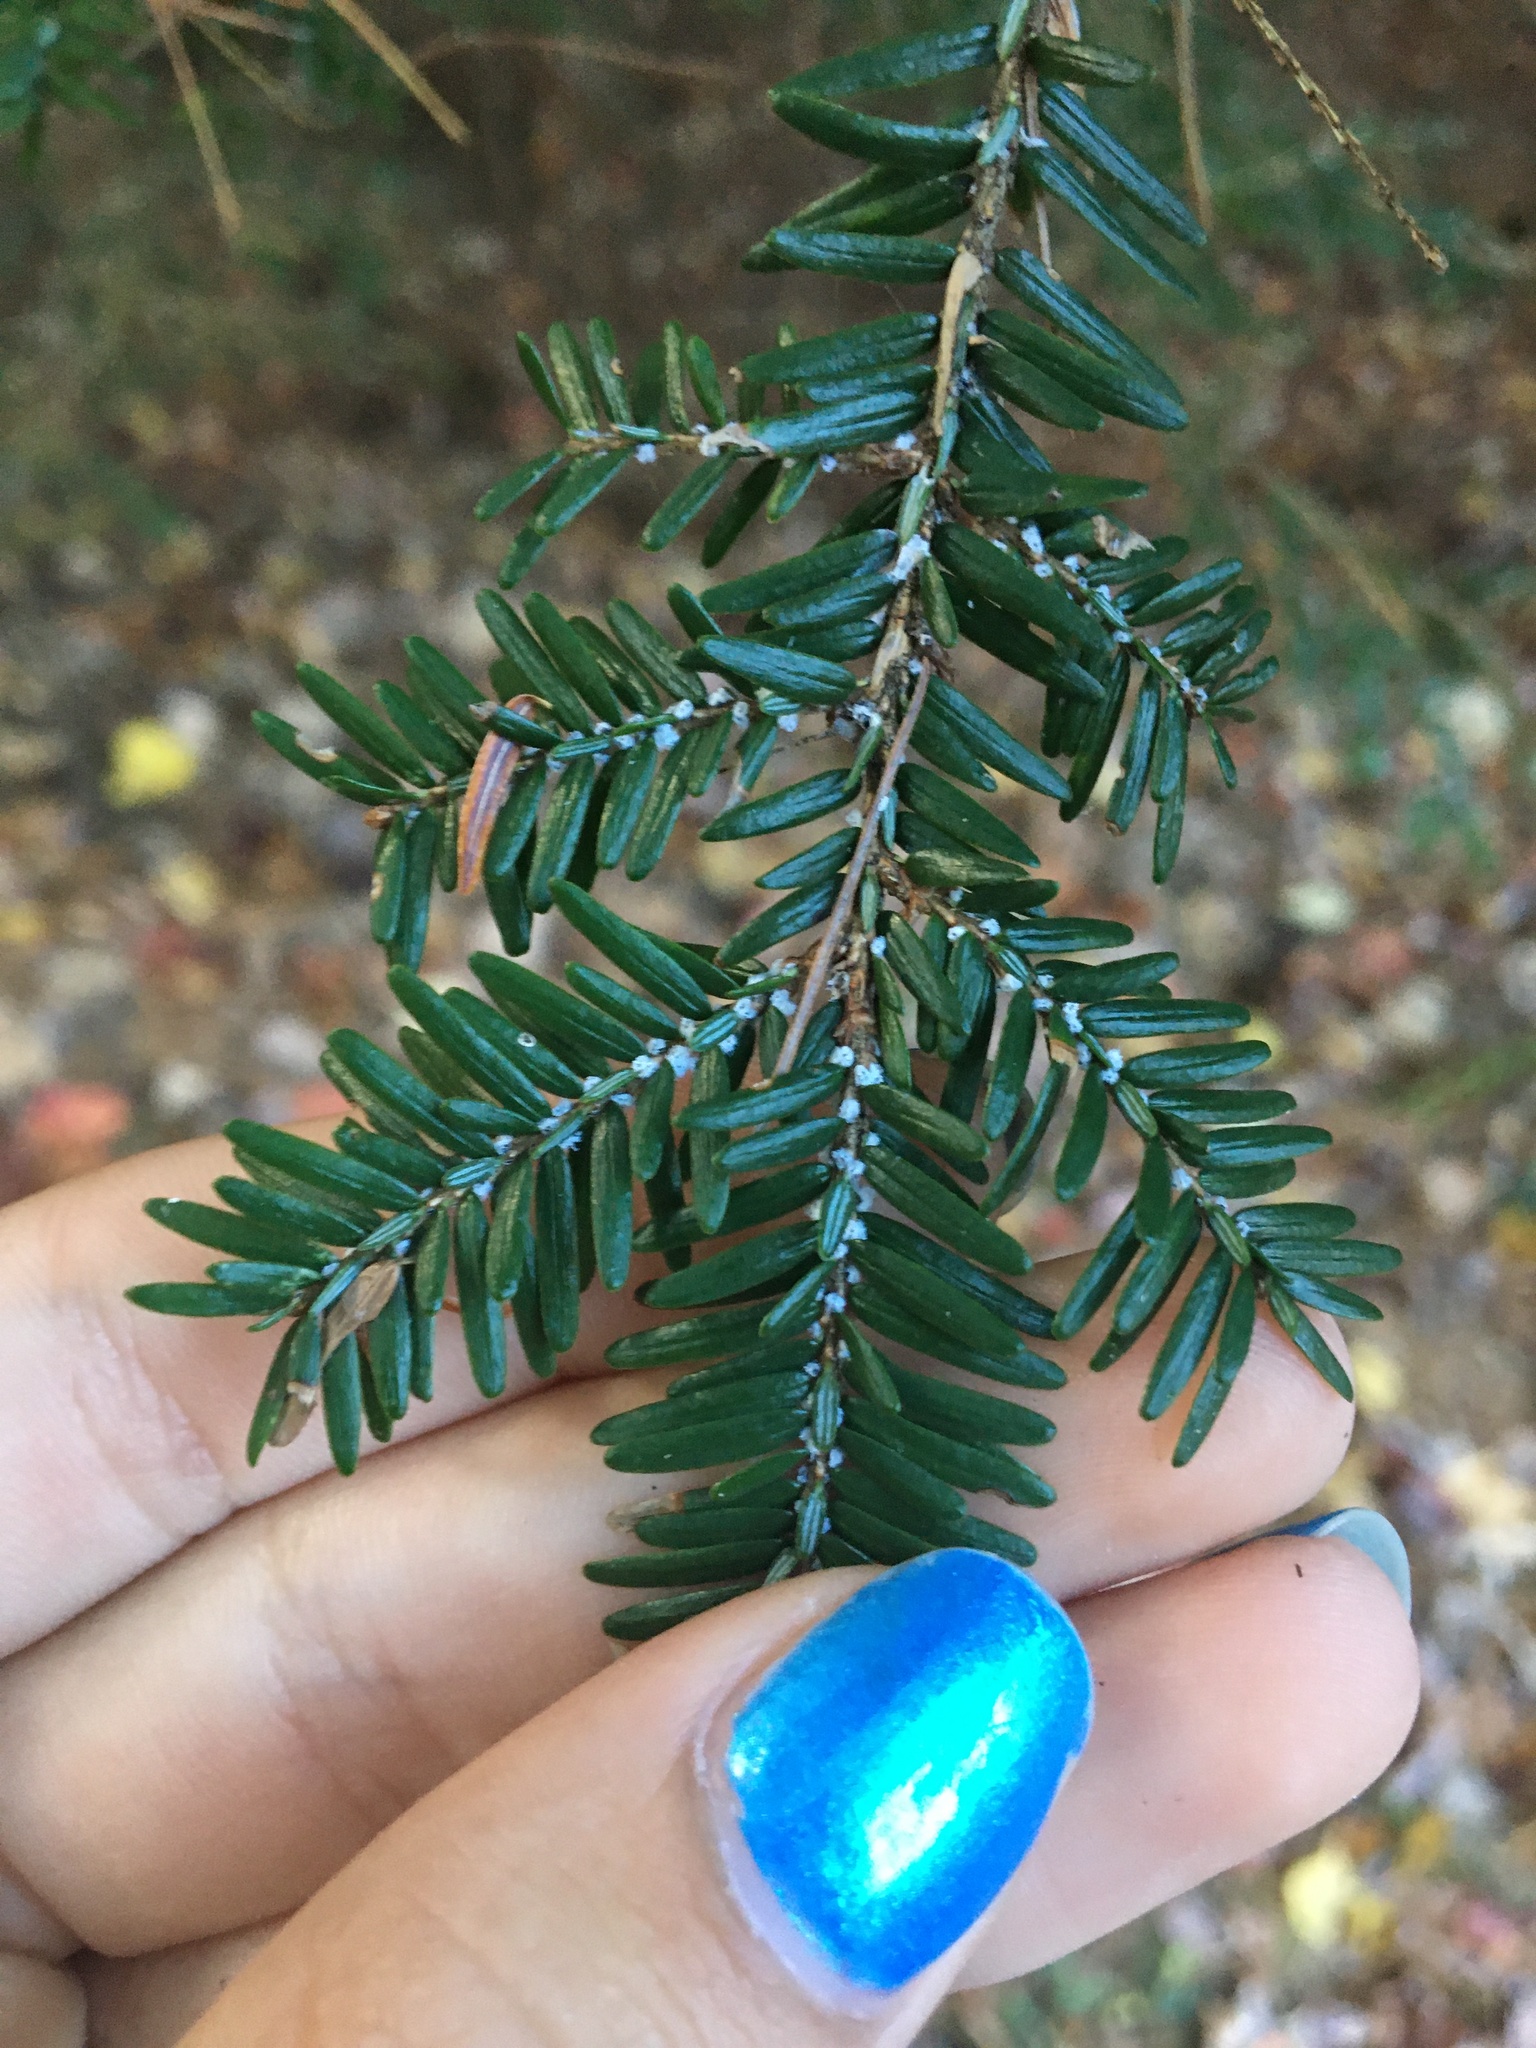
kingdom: Animalia
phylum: Arthropoda
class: Insecta
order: Hemiptera
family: Adelgidae
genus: Adelges
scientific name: Adelges tsugae
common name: Hemlock woolly adelgid
